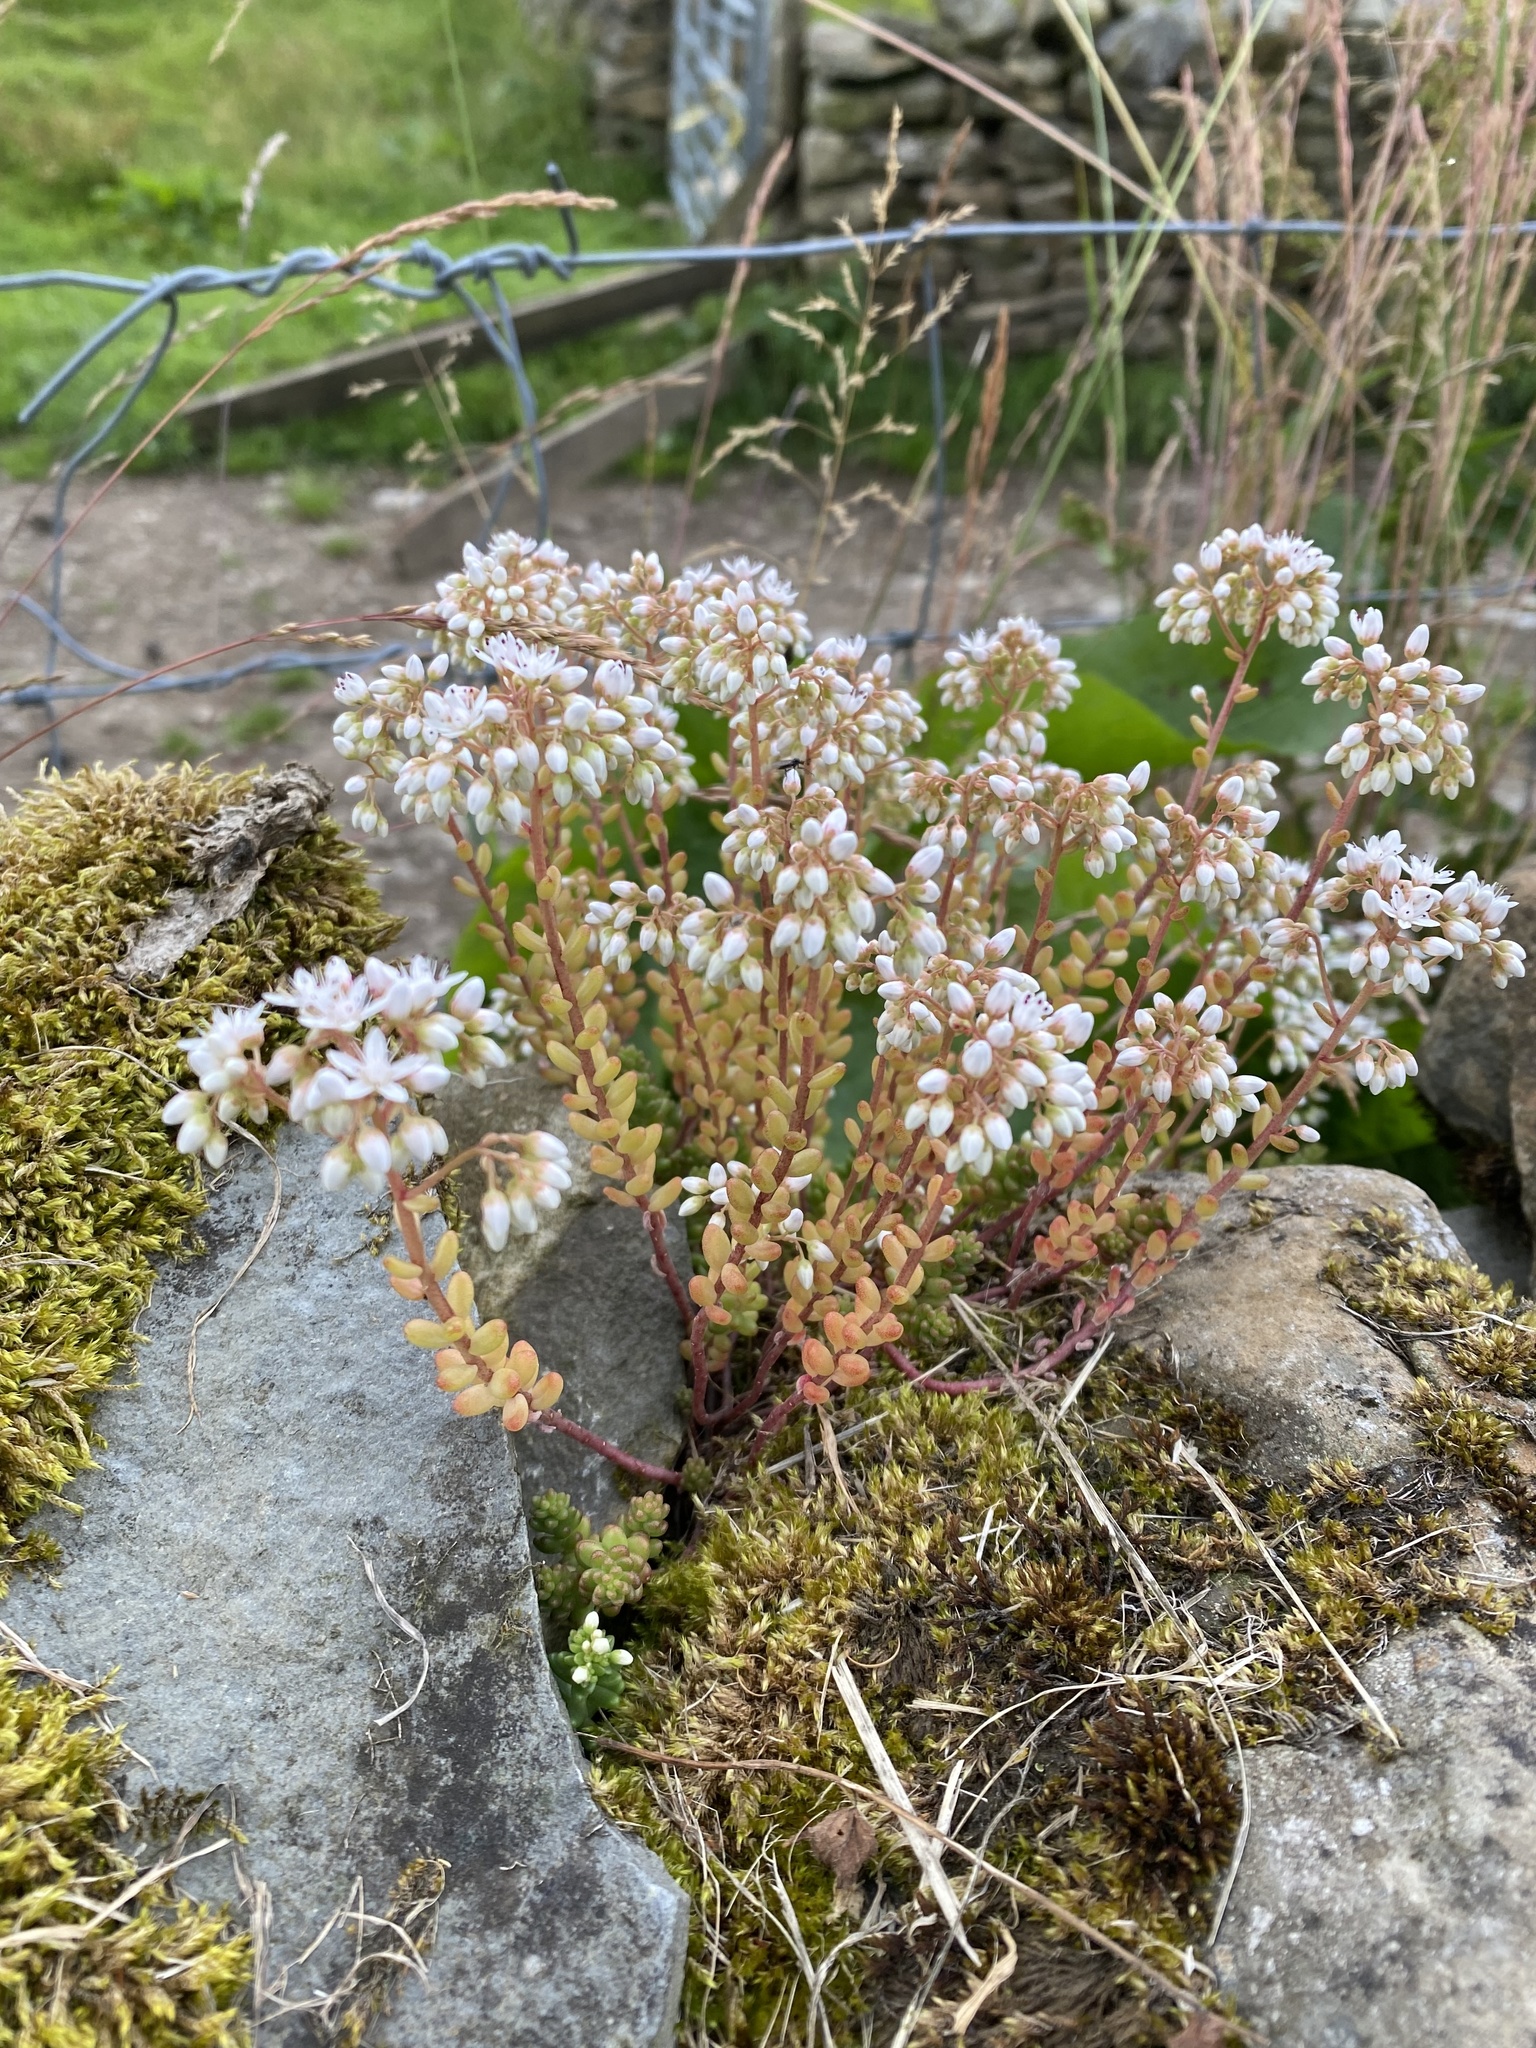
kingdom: Plantae
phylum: Tracheophyta
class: Magnoliopsida
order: Saxifragales
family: Crassulaceae
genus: Sedum
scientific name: Sedum album
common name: White stonecrop
